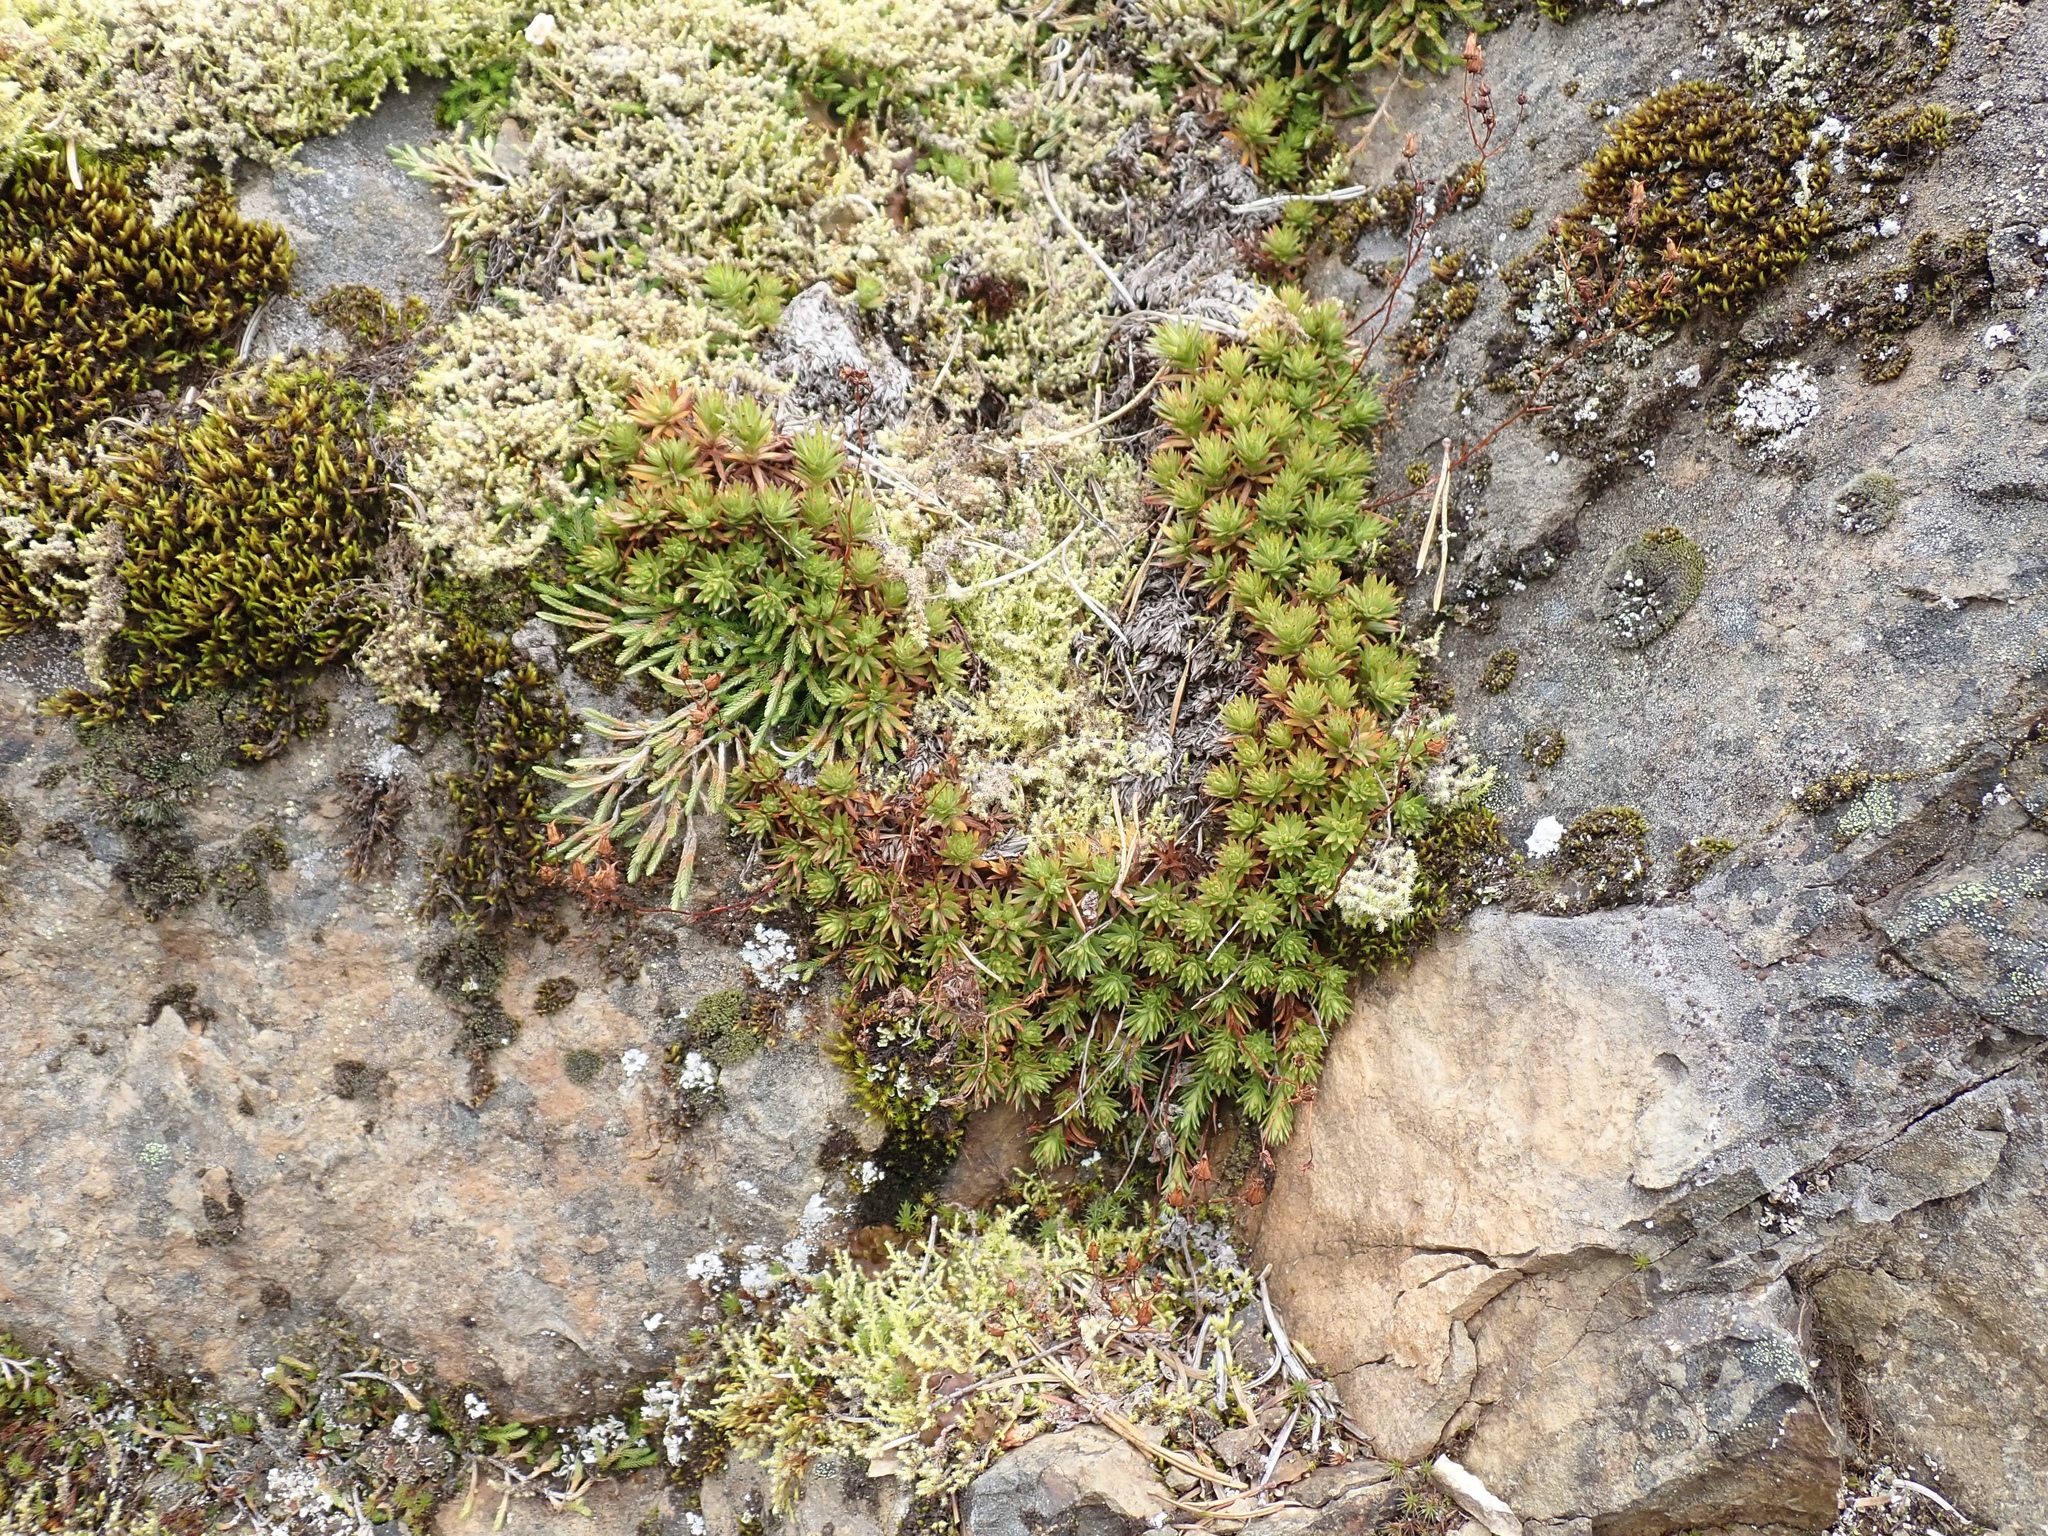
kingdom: Plantae
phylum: Tracheophyta
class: Magnoliopsida
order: Saxifragales
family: Saxifragaceae
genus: Saxifraga
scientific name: Saxifraga bronchialis
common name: Matted saxifrage
